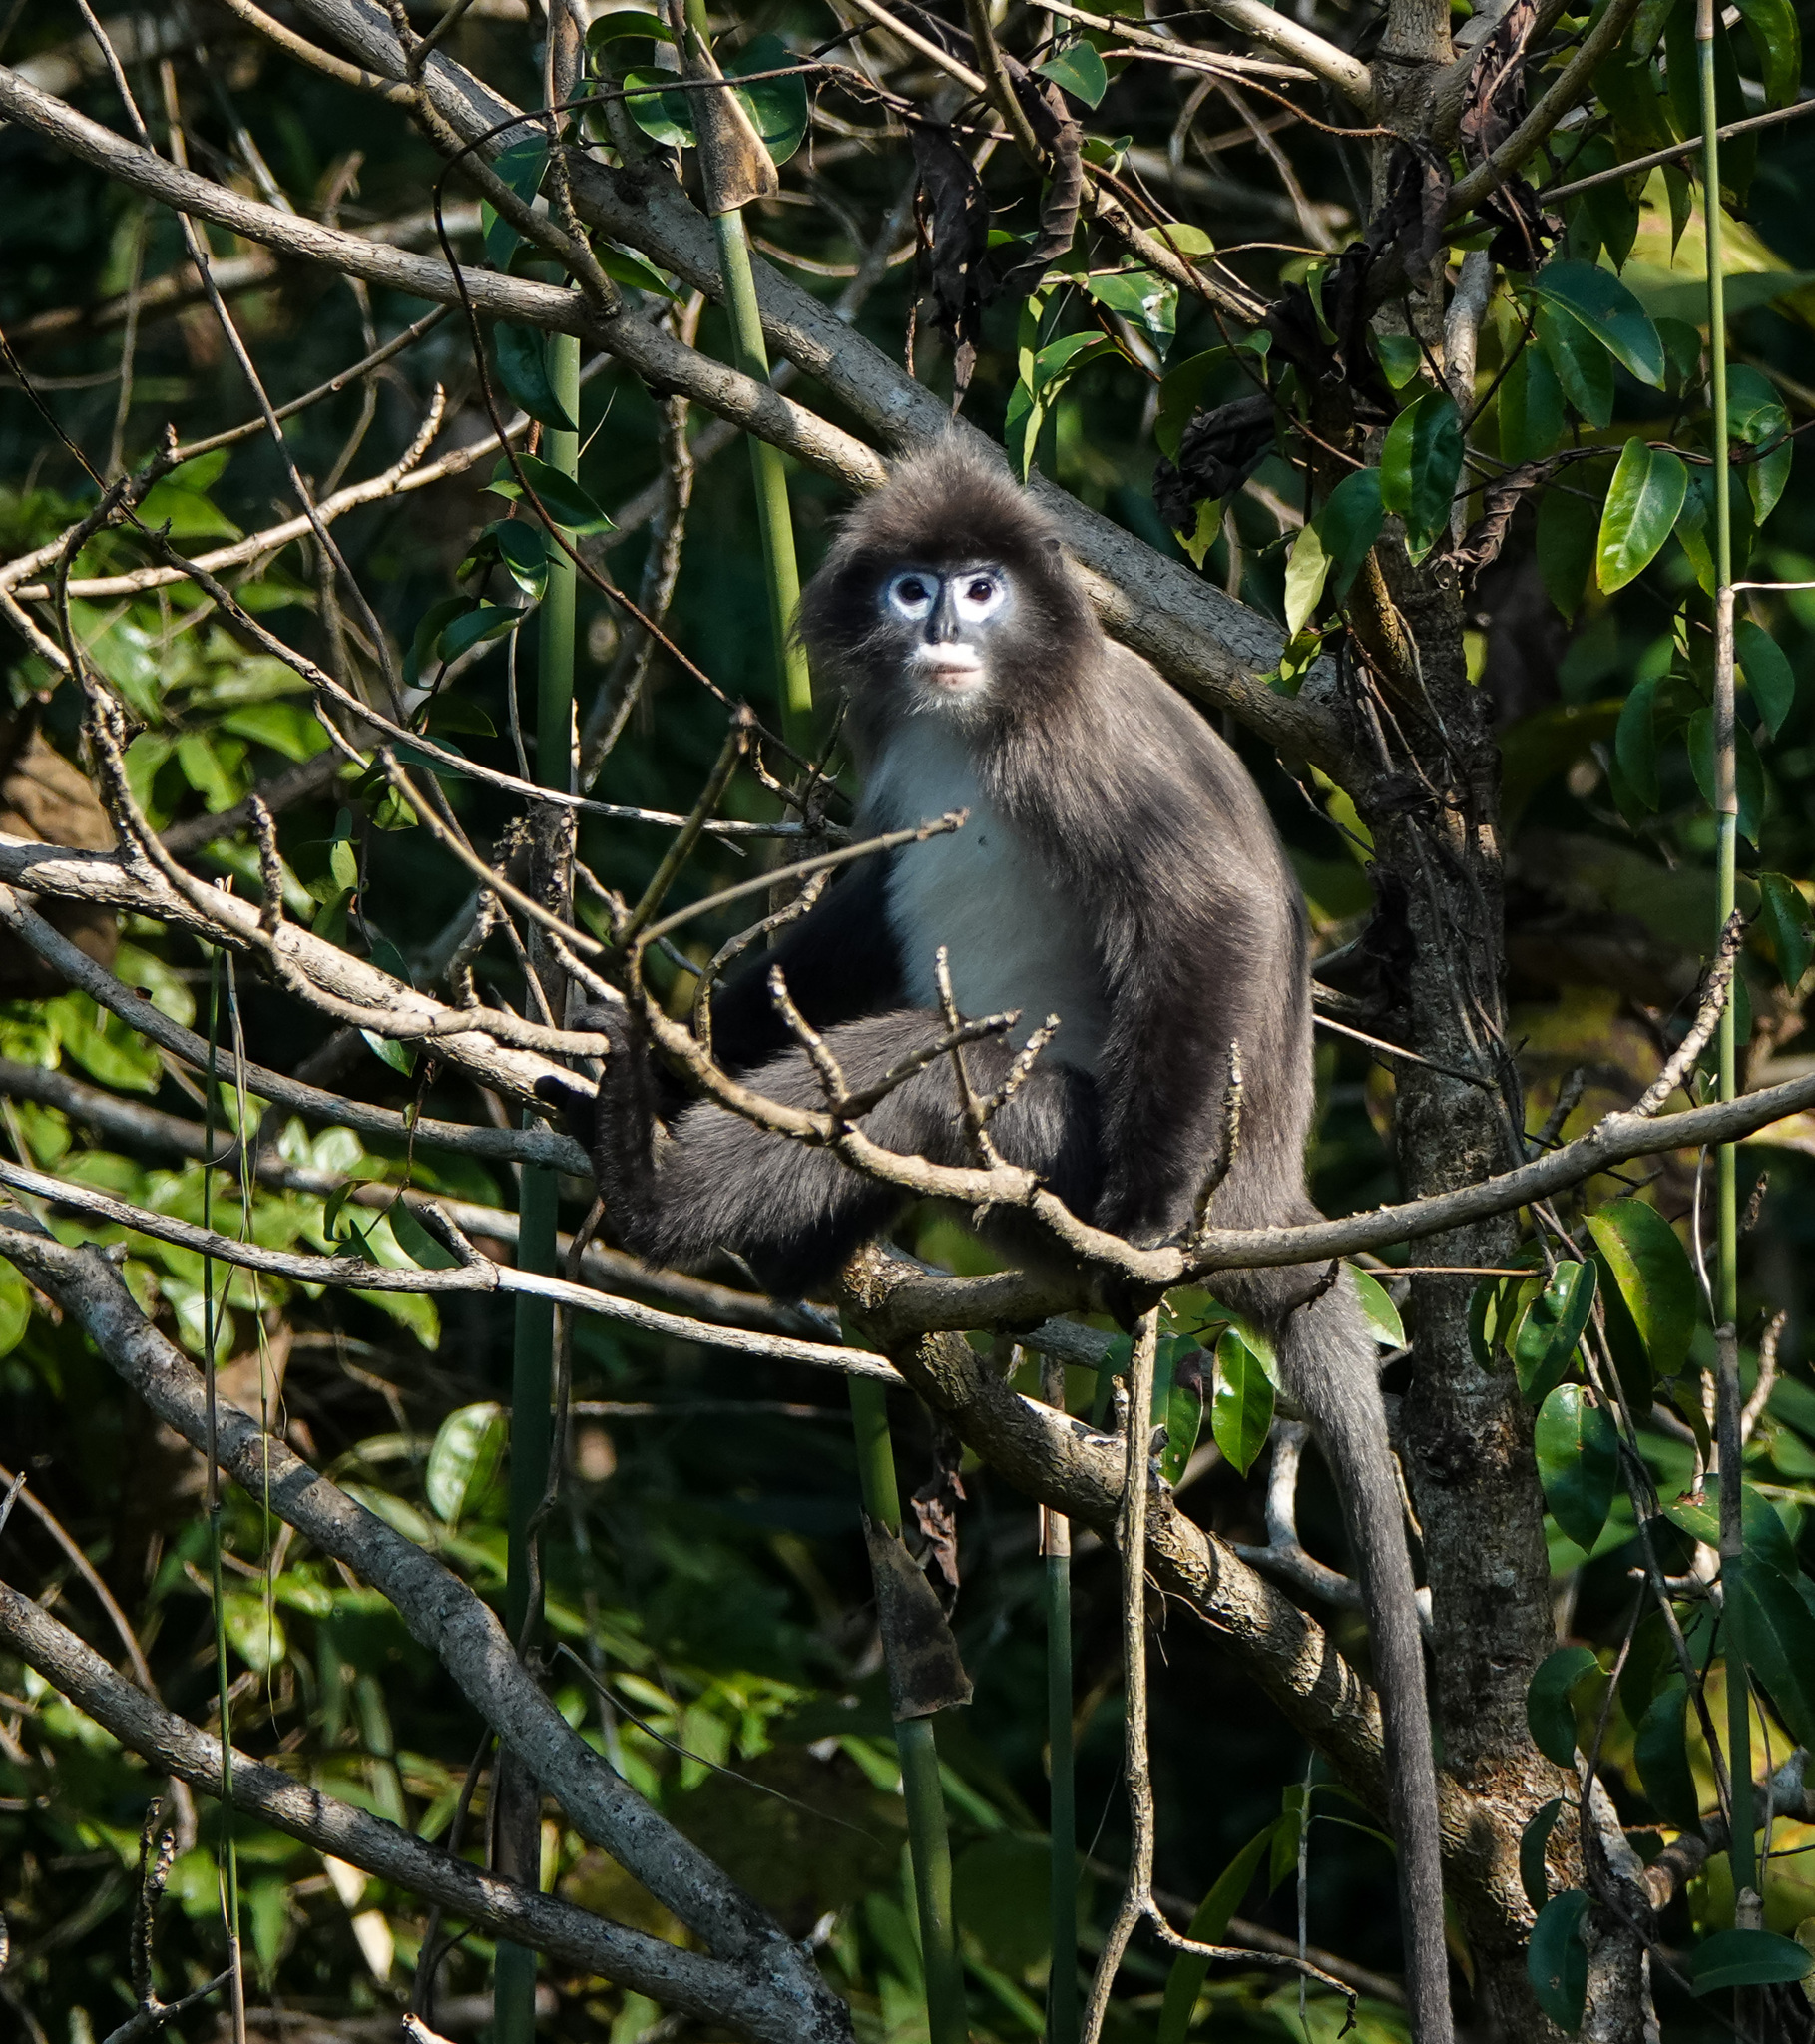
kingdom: Animalia
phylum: Chordata
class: Mammalia
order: Primates
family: Cercopithecidae
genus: Trachypithecus
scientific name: Trachypithecus phayrei
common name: Phayre's leaf monkey
